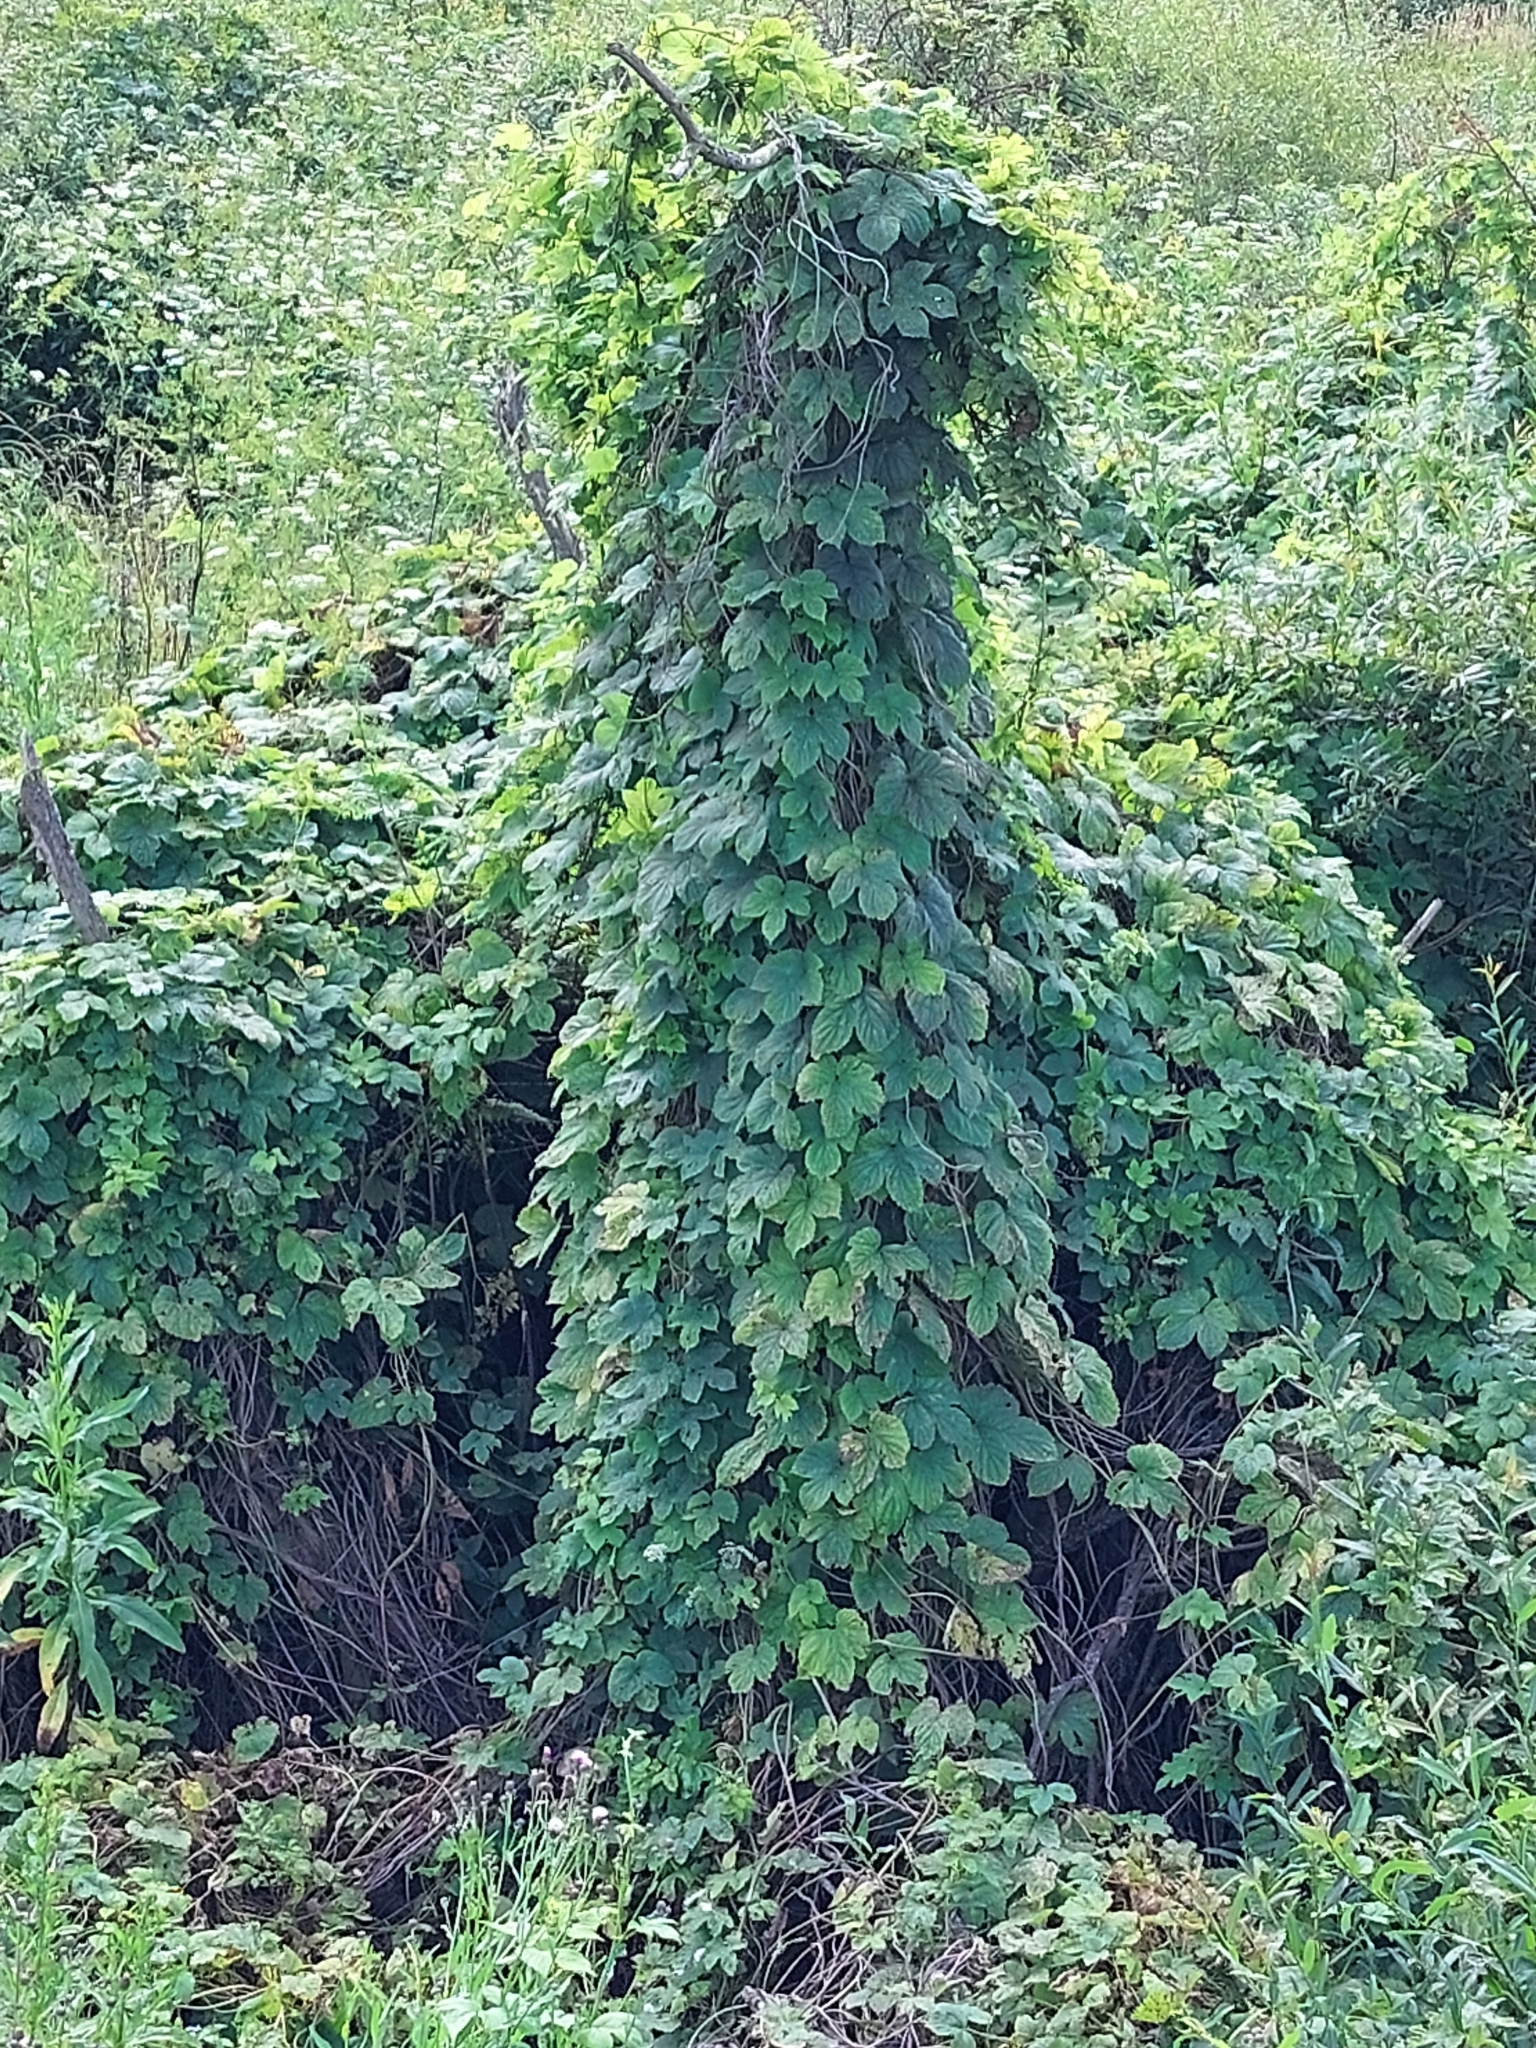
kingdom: Plantae
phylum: Tracheophyta
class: Magnoliopsida
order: Rosales
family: Cannabaceae
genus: Humulus
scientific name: Humulus lupulus
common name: Hop
